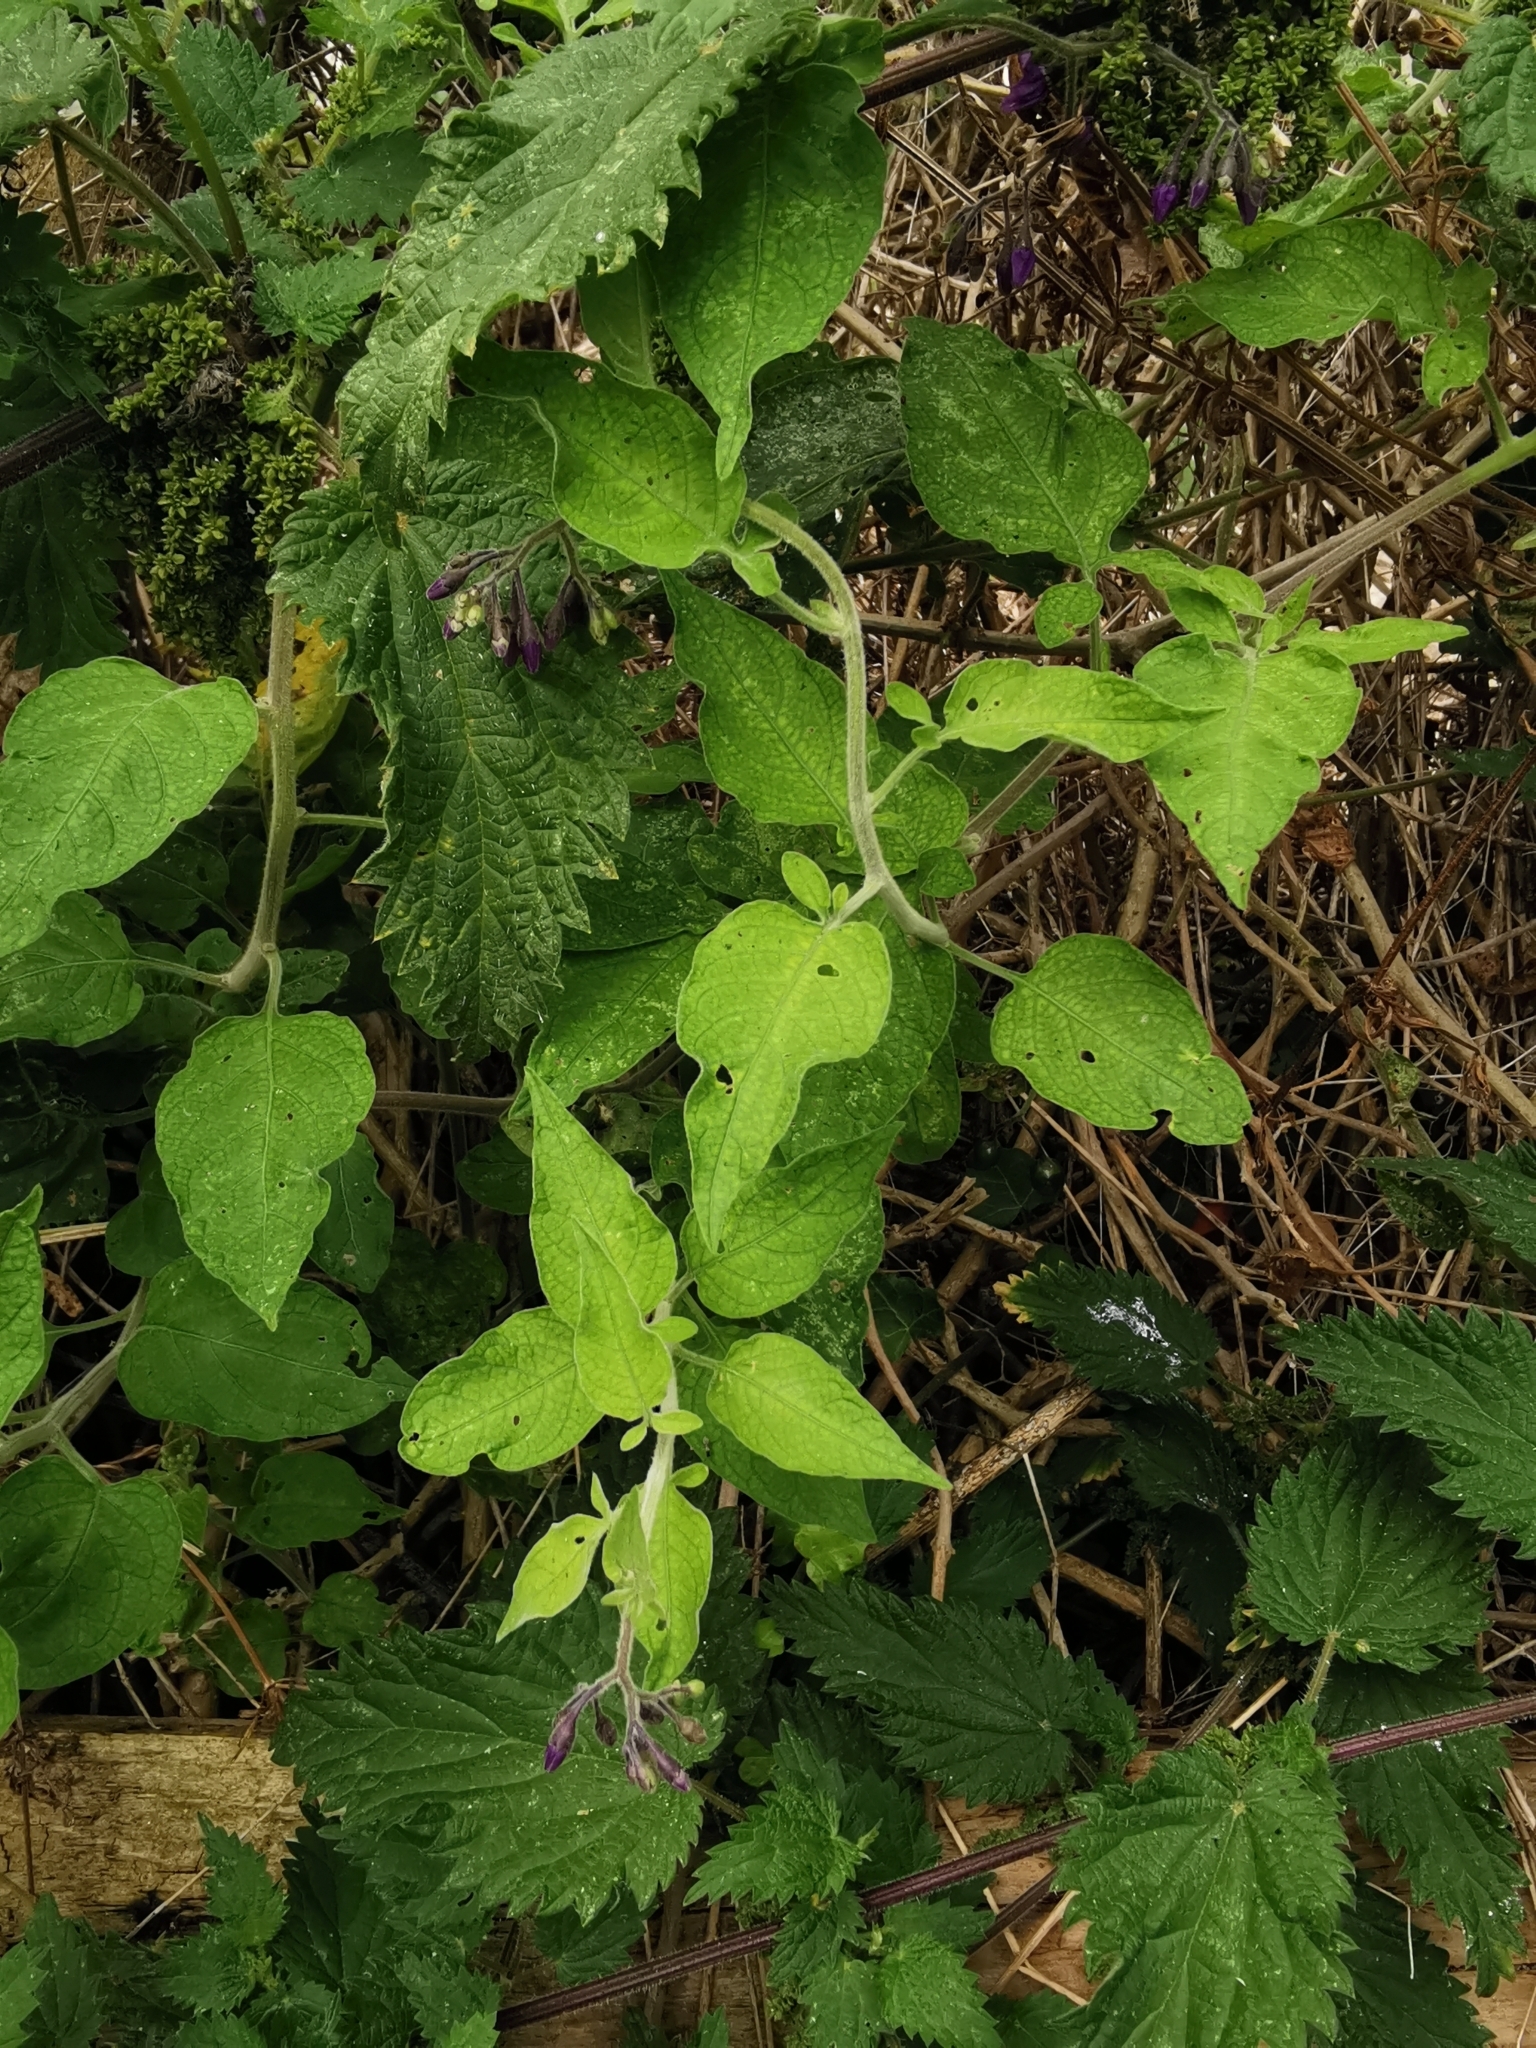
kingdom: Plantae
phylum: Tracheophyta
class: Magnoliopsida
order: Solanales
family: Solanaceae
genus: Solanum
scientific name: Solanum dulcamara
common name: Climbing nightshade
